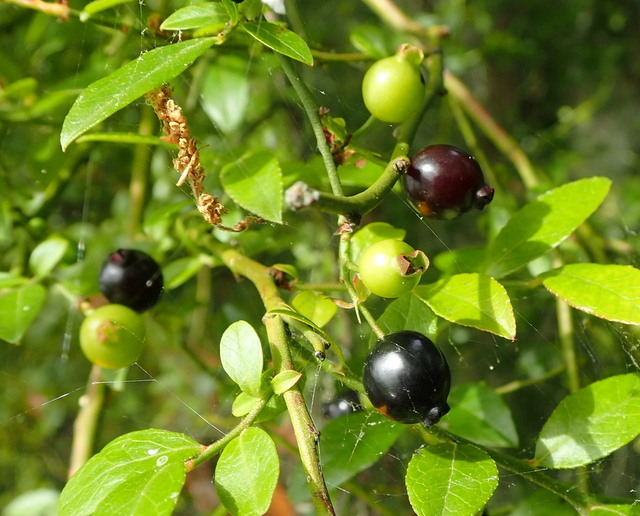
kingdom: Plantae
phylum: Tracheophyta
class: Magnoliopsida
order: Ericales
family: Ericaceae
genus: Vaccinium
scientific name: Vaccinium corymbosum
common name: Blueberry
